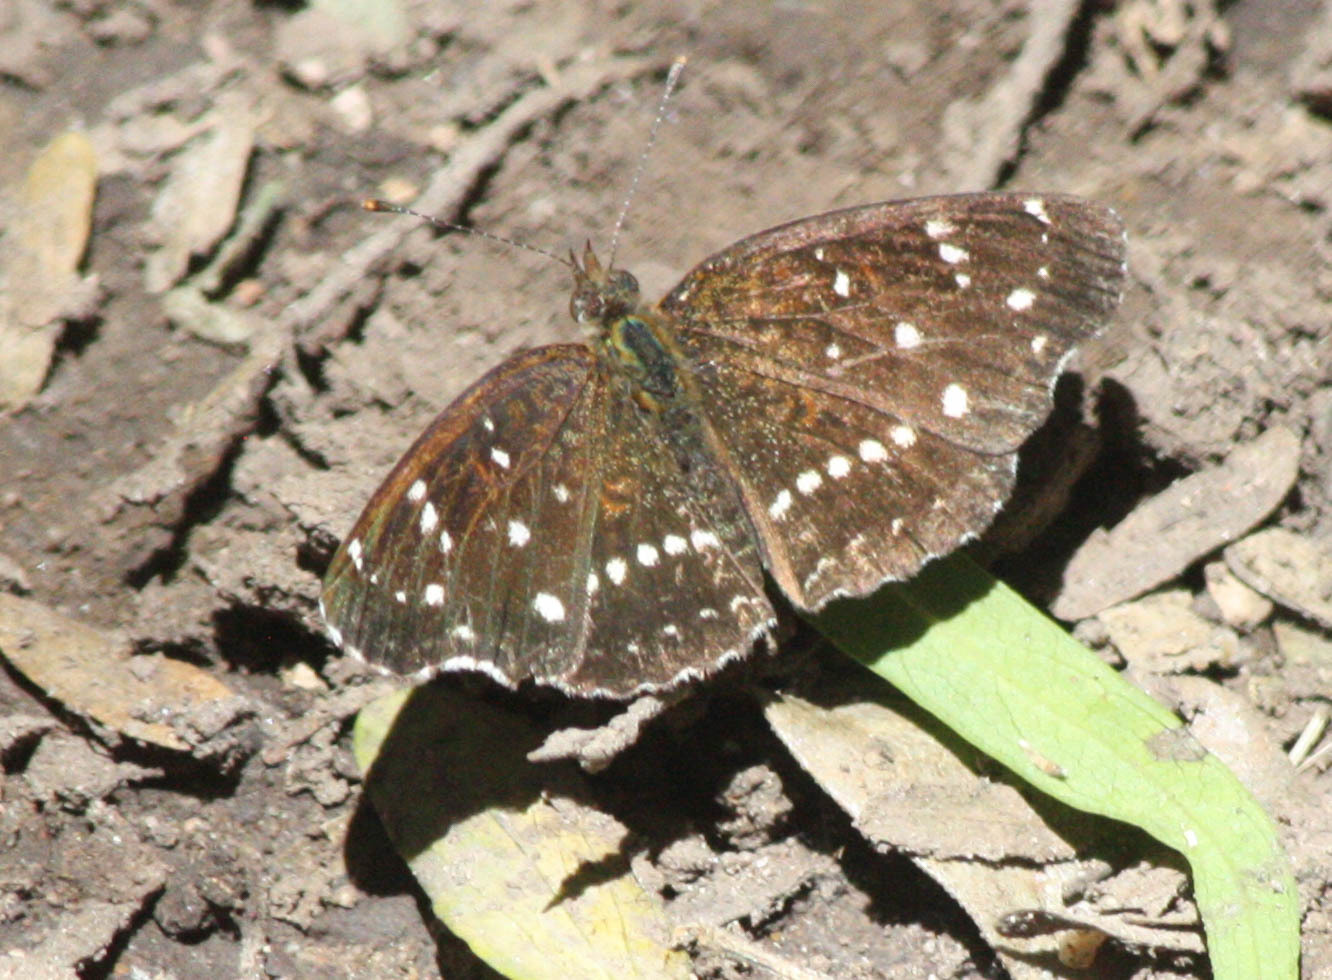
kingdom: Animalia
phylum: Arthropoda
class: Insecta
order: Lepidoptera
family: Nymphalidae
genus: Anthanassa
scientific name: Anthanassa texana
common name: Texan crescent
